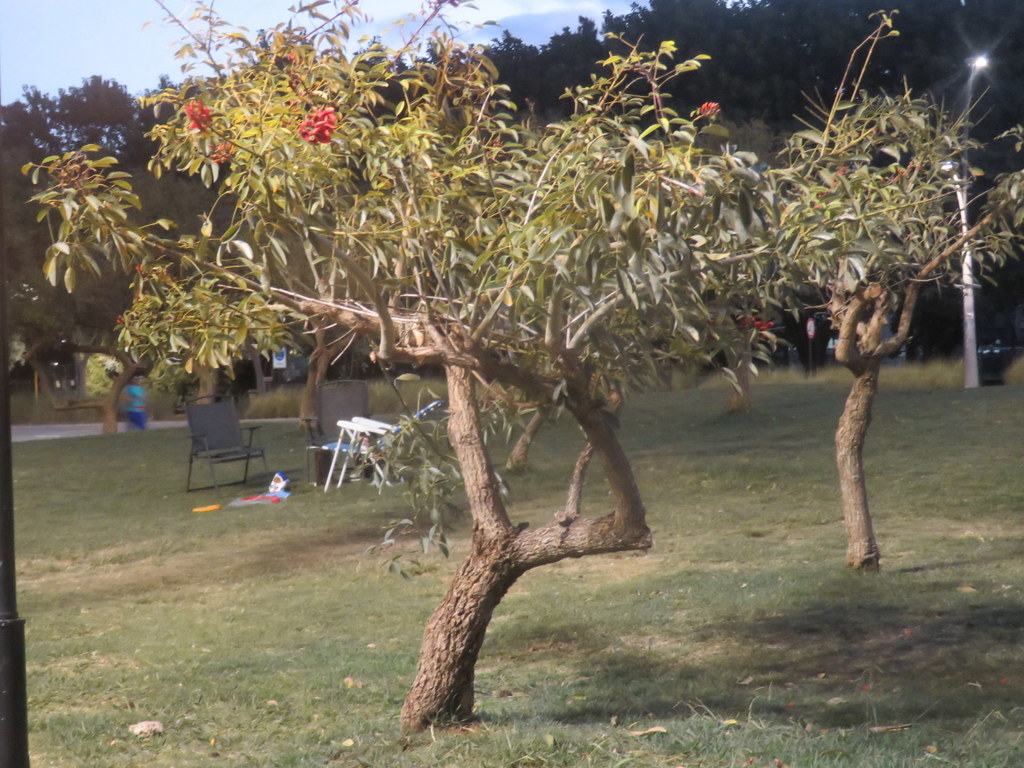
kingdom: Plantae
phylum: Tracheophyta
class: Magnoliopsida
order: Fabales
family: Fabaceae
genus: Erythrina
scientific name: Erythrina crista-galli
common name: Cockspur coral tree
